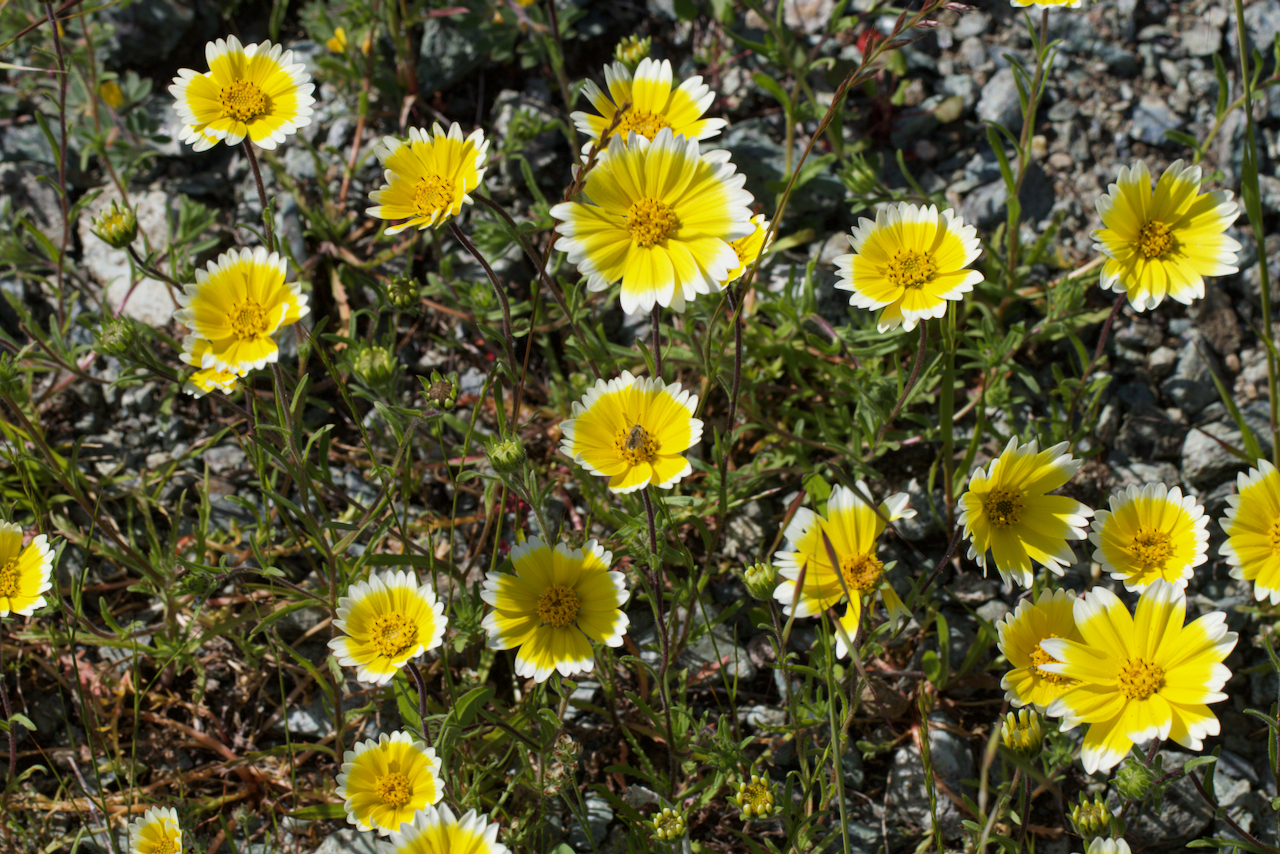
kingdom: Plantae
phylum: Tracheophyta
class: Magnoliopsida
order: Asterales
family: Asteraceae
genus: Layia
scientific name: Layia platyglossa
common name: Tidy-tips
